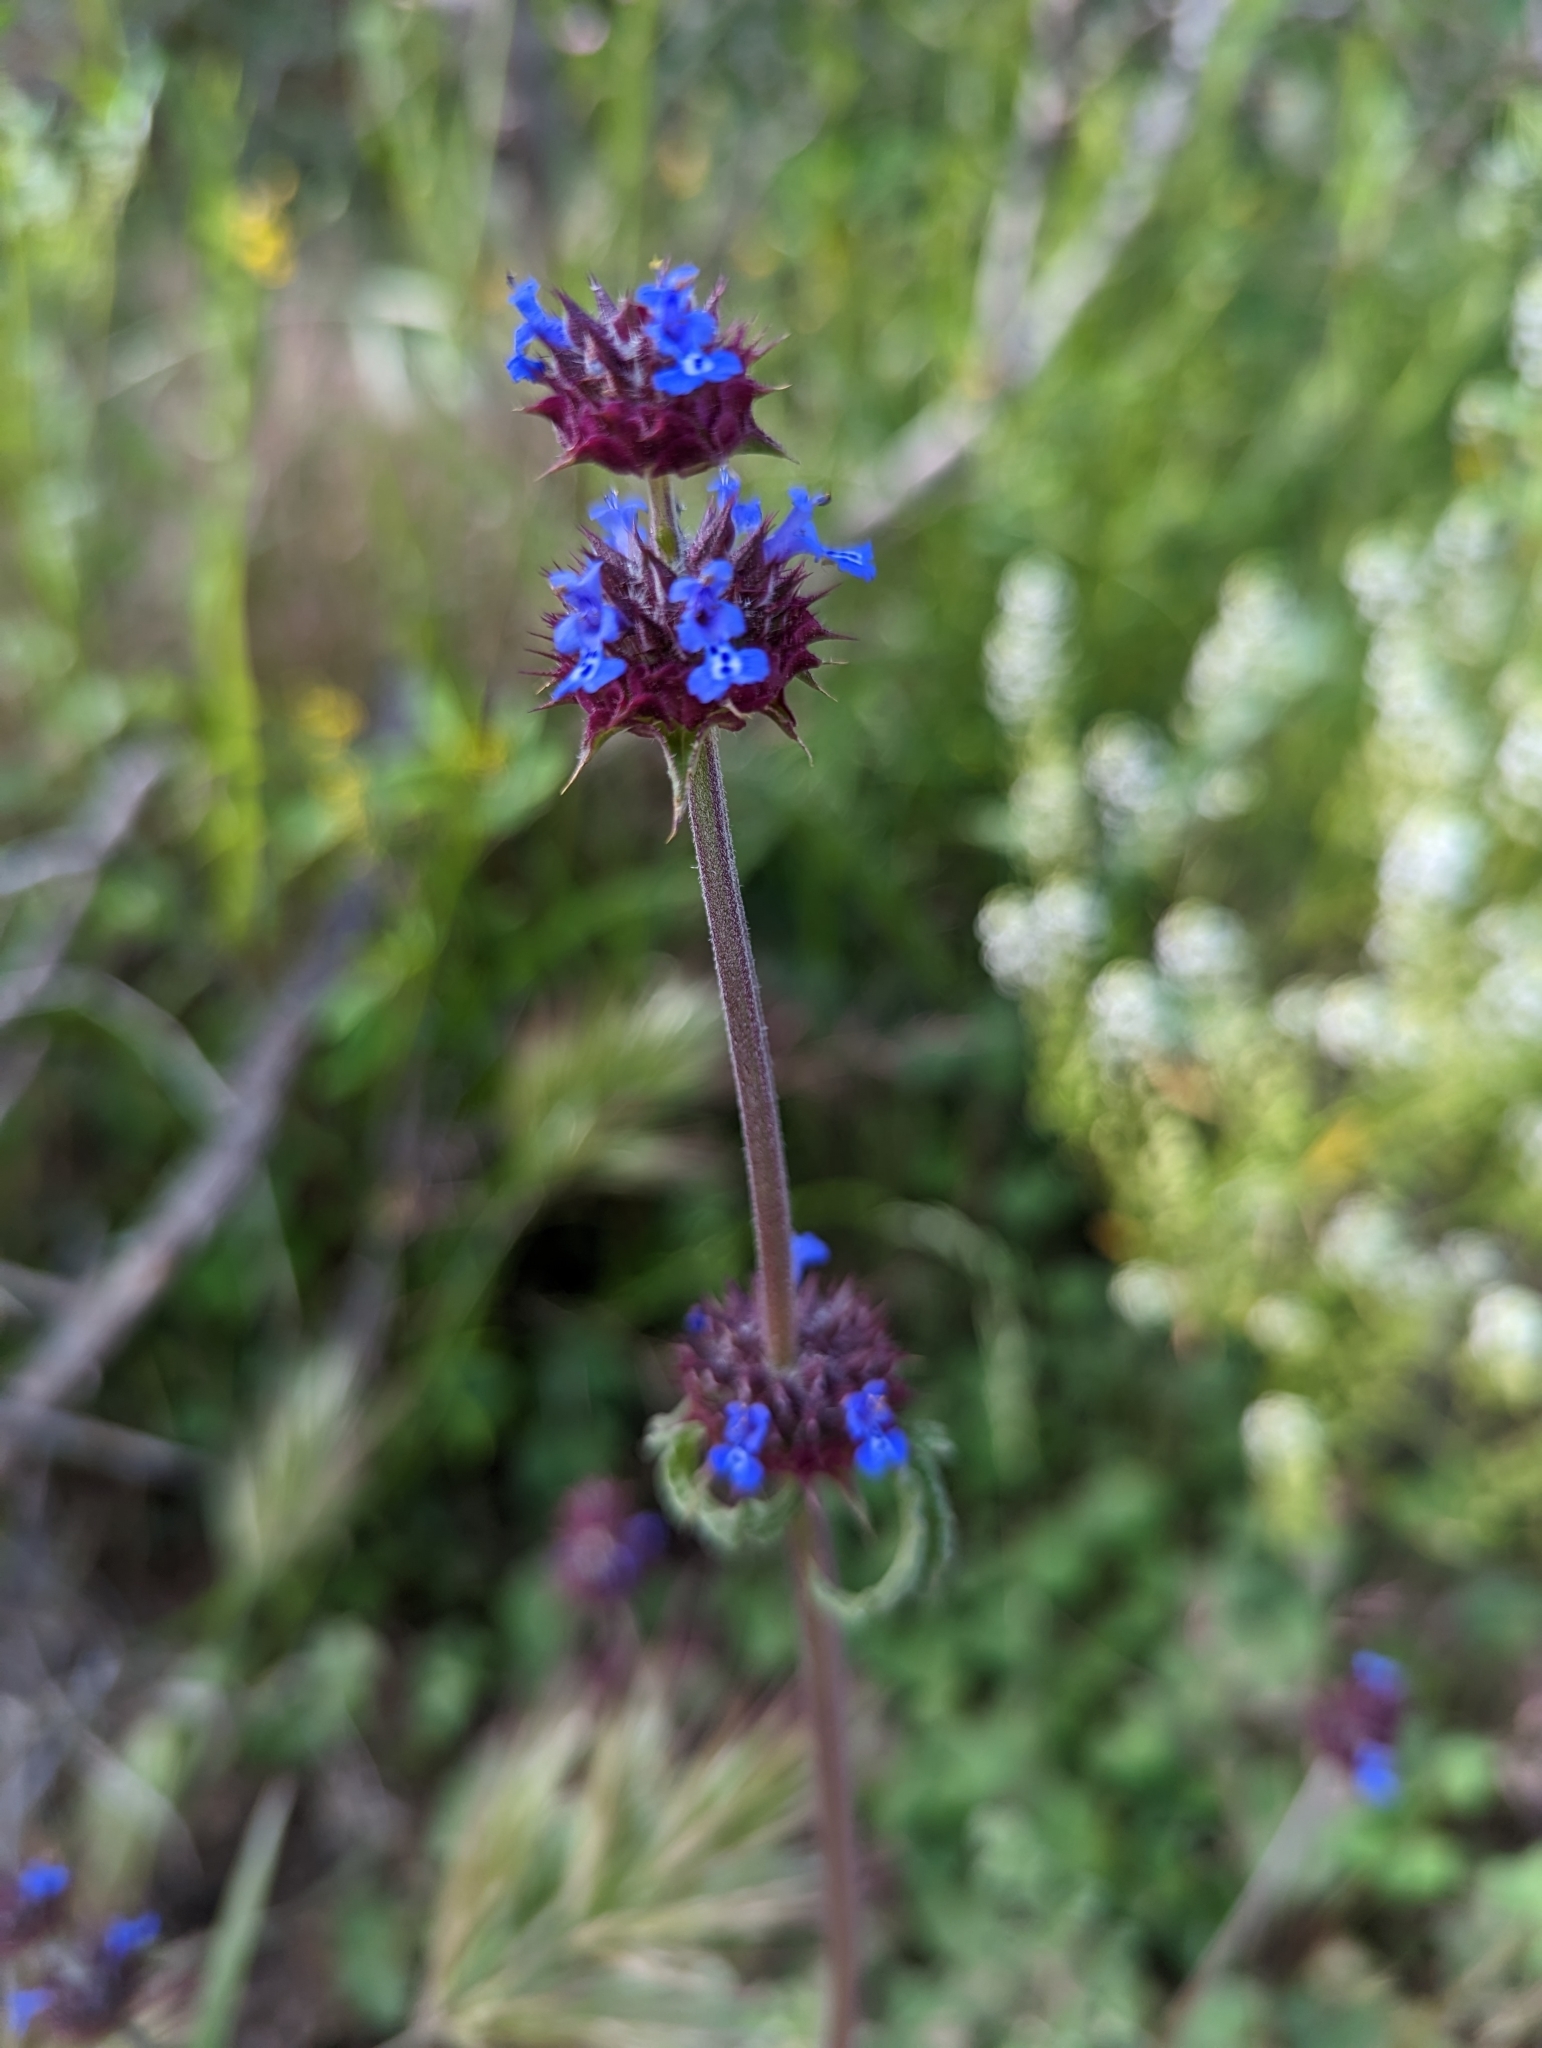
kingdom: Plantae
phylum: Tracheophyta
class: Magnoliopsida
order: Lamiales
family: Lamiaceae
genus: Salvia
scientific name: Salvia columbariae
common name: Chia
